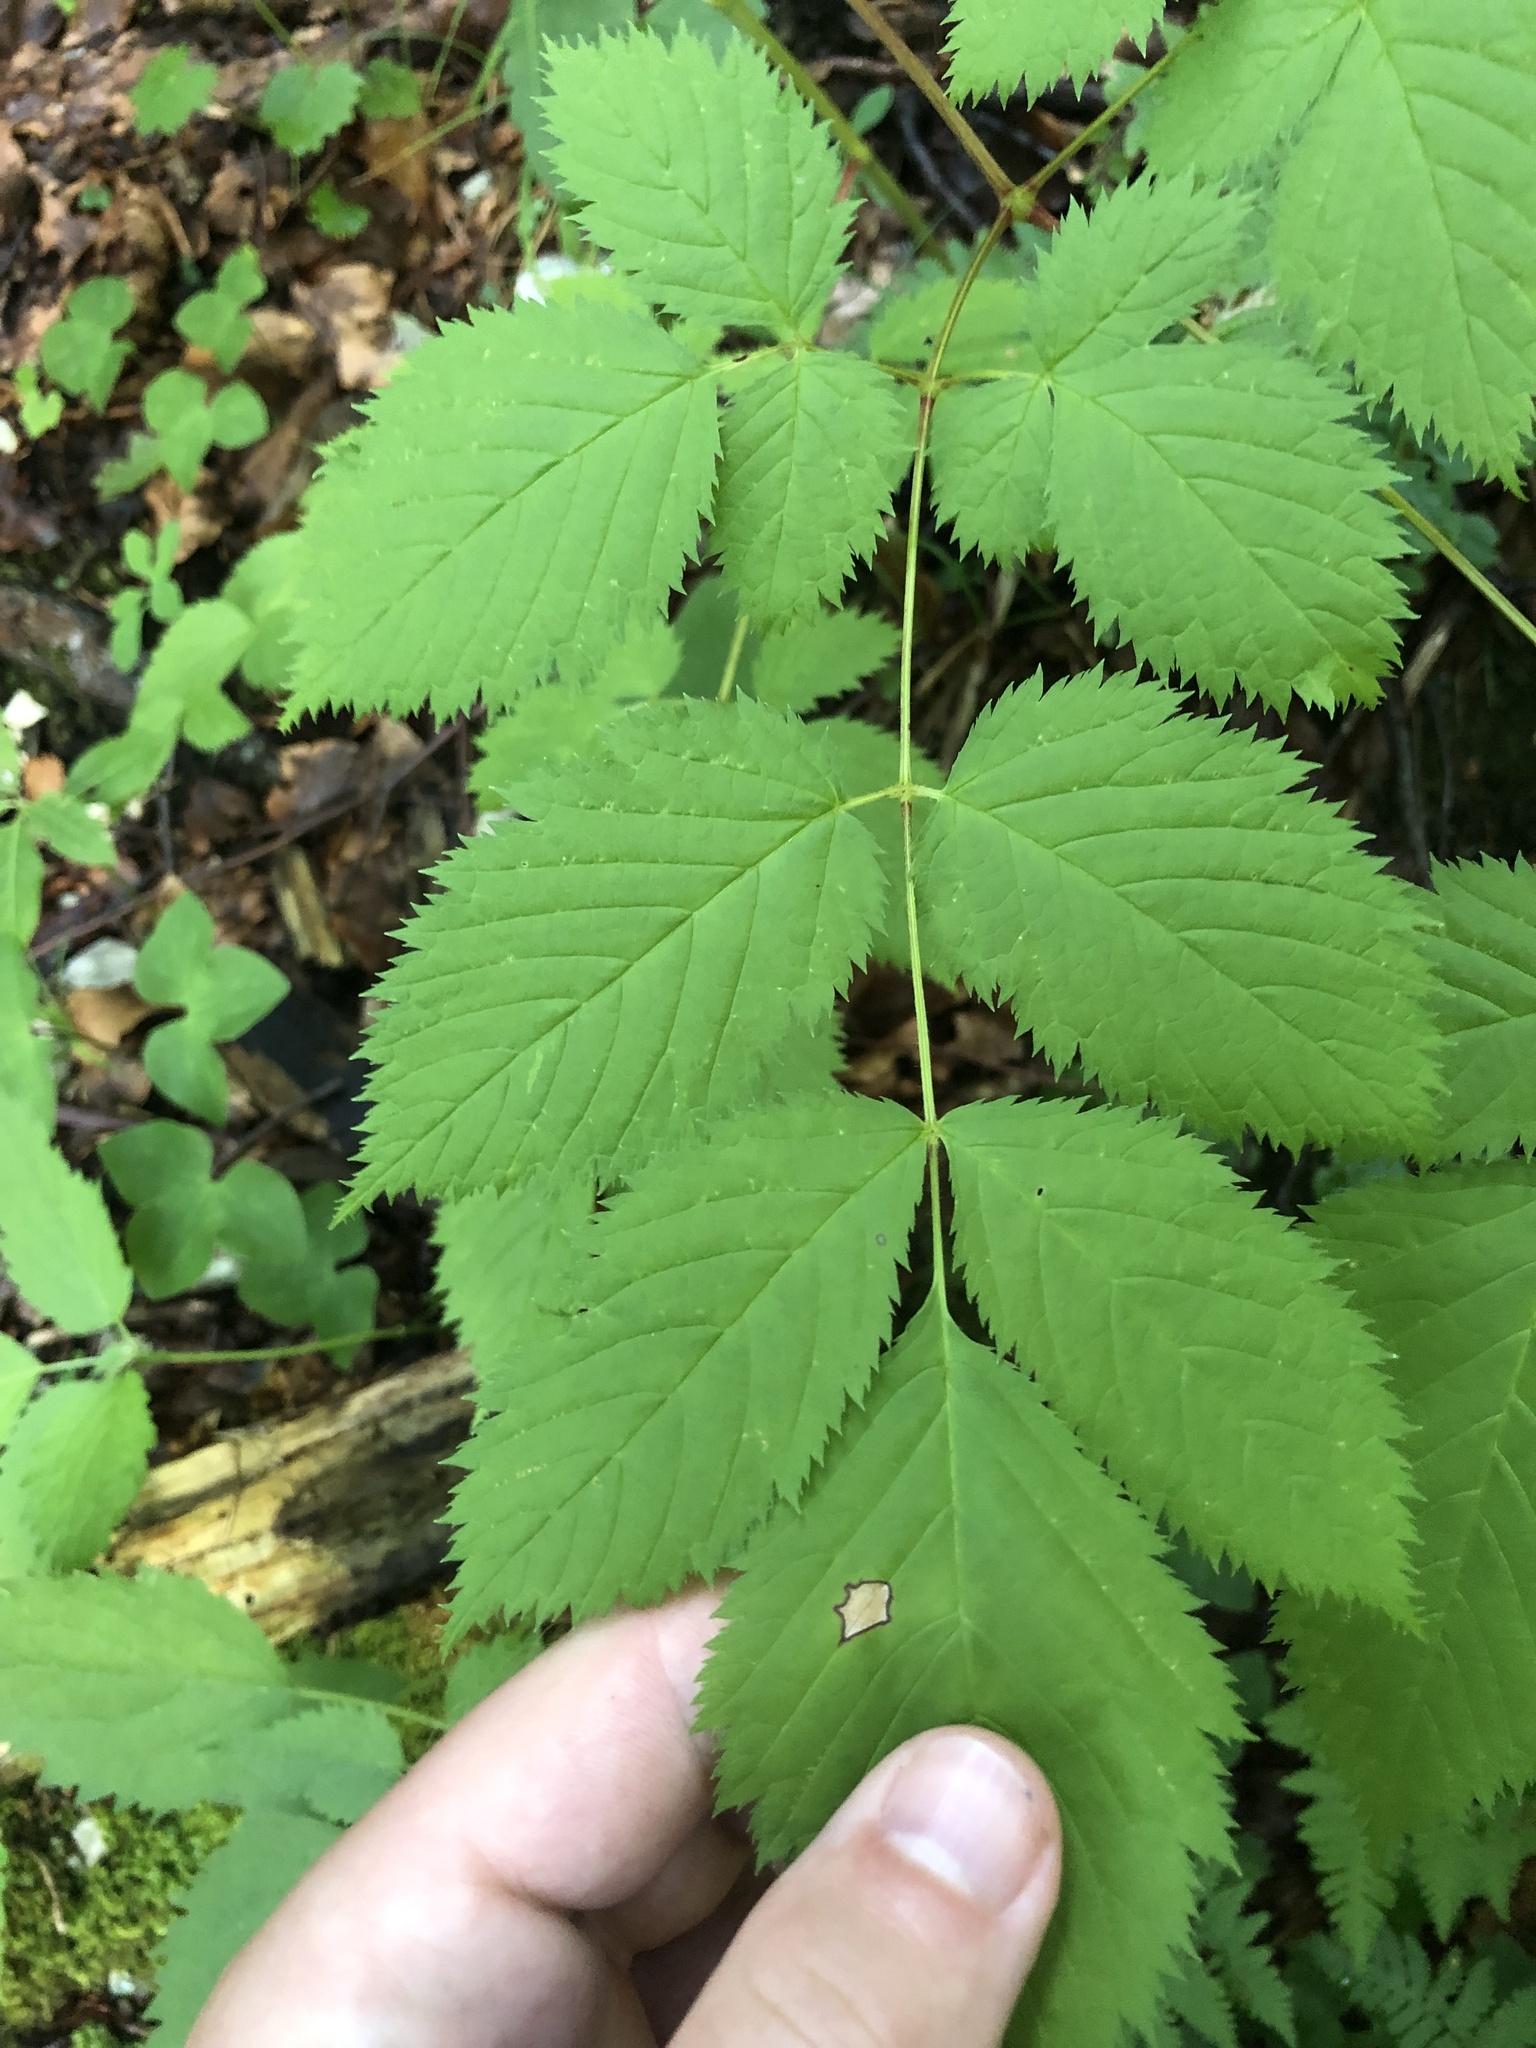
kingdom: Plantae
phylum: Tracheophyta
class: Magnoliopsida
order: Rosales
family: Rosaceae
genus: Aruncus
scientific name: Aruncus dioicus
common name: Buck's-beard
